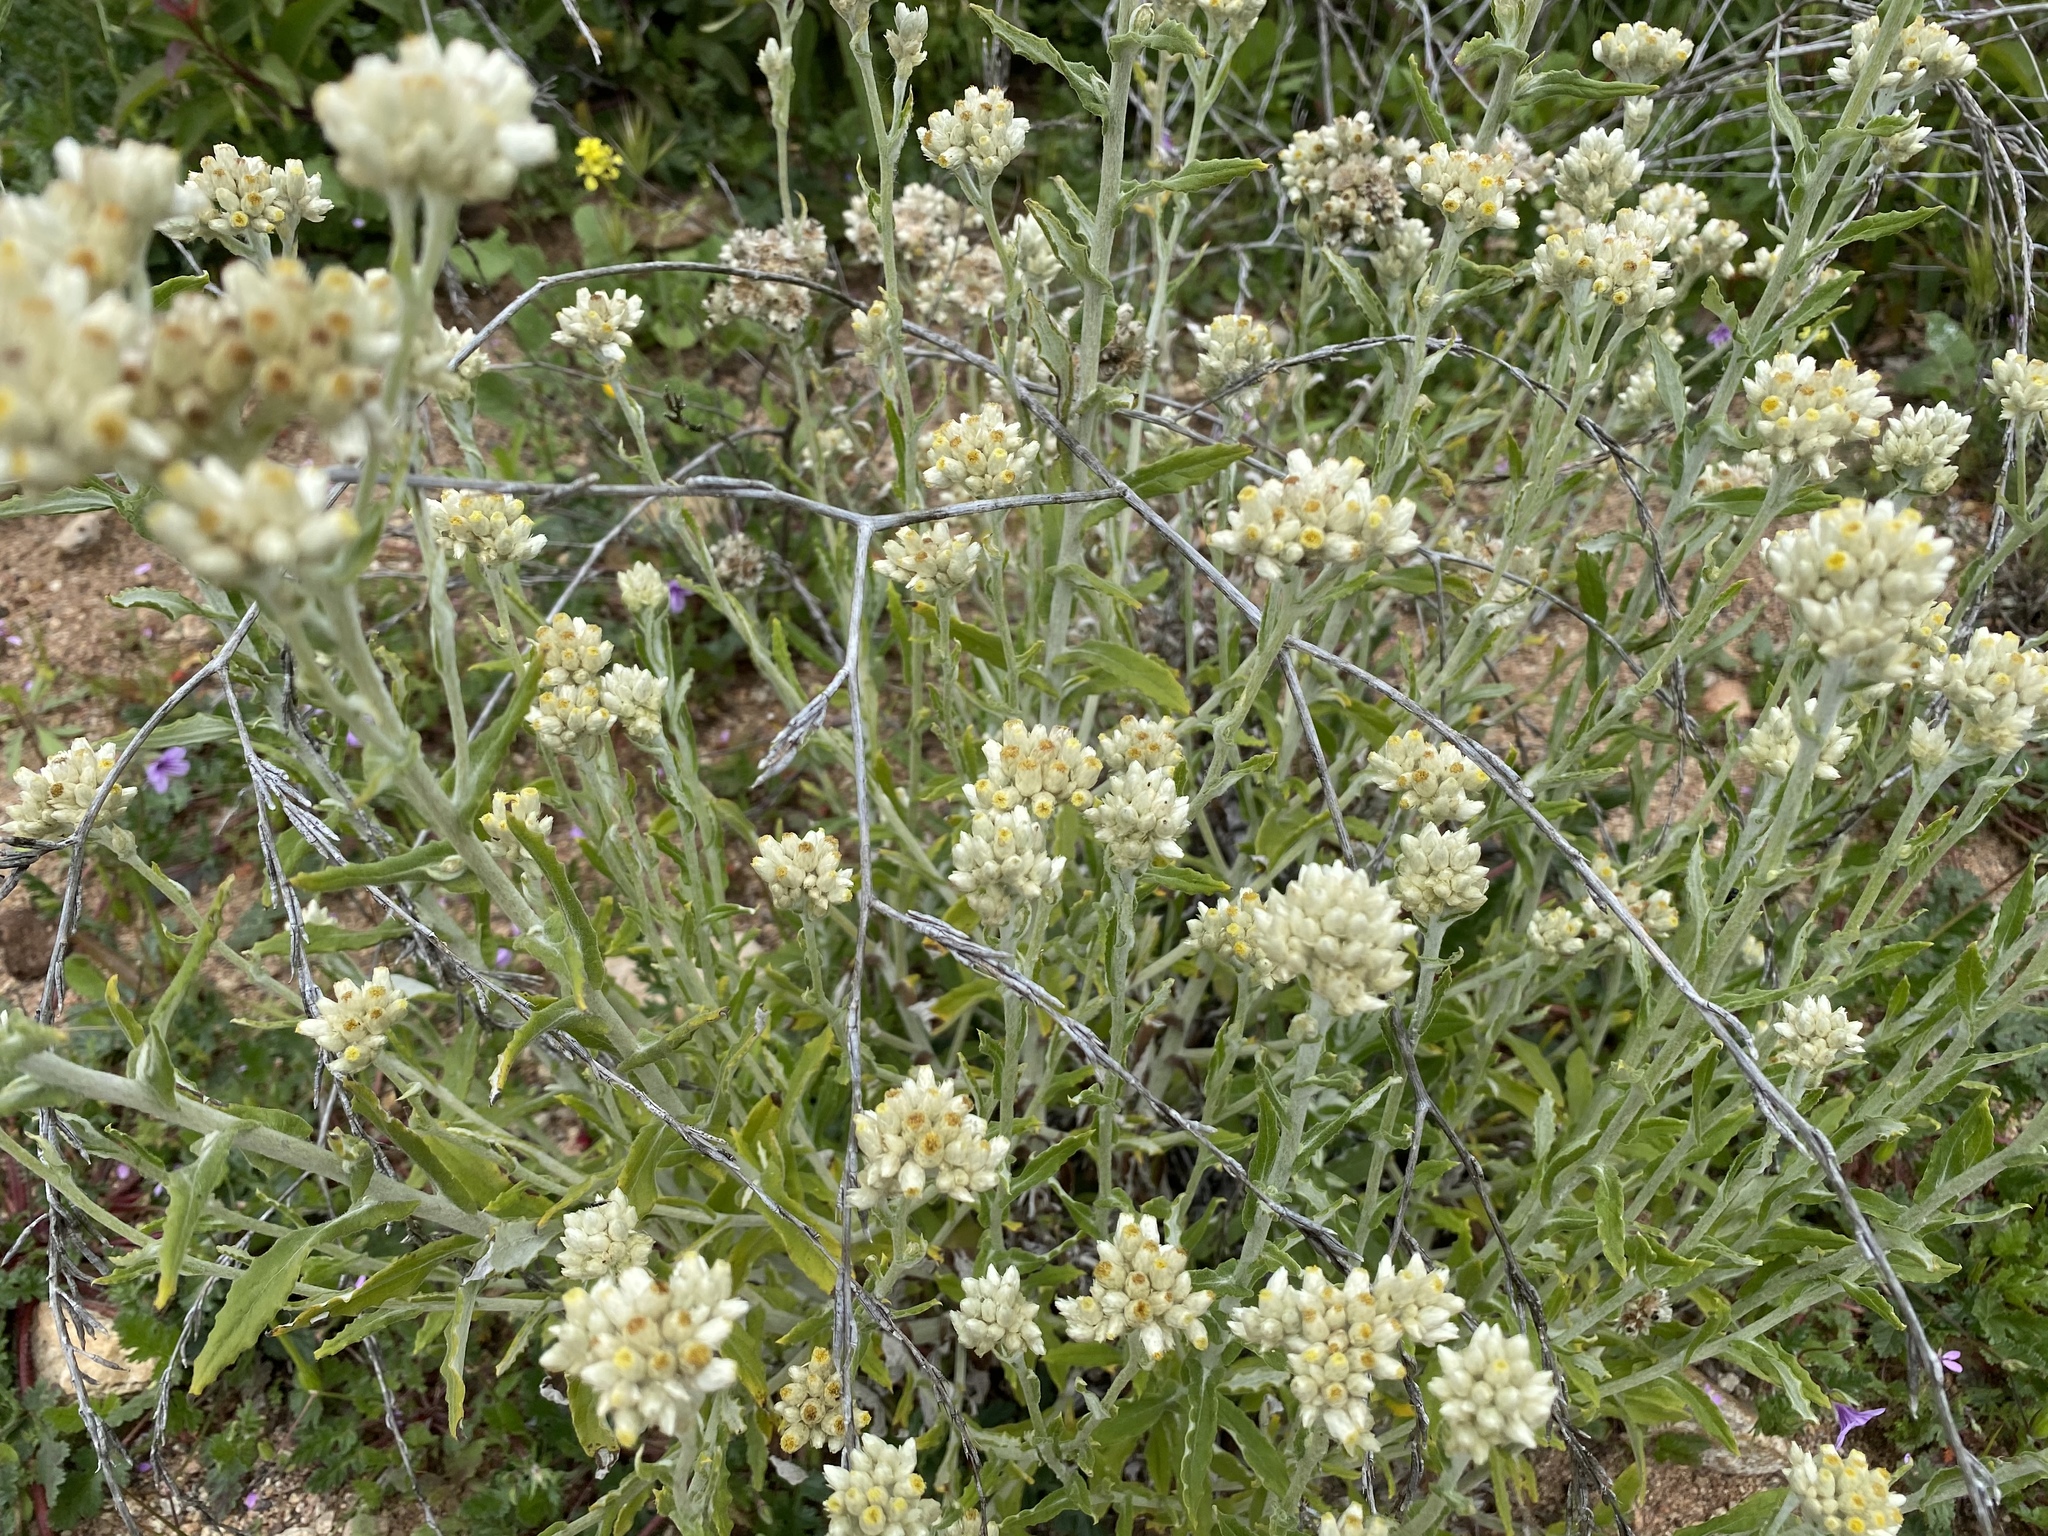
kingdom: Plantae
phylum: Tracheophyta
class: Magnoliopsida
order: Asterales
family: Asteraceae
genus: Pseudognaphalium
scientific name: Pseudognaphalium biolettii
